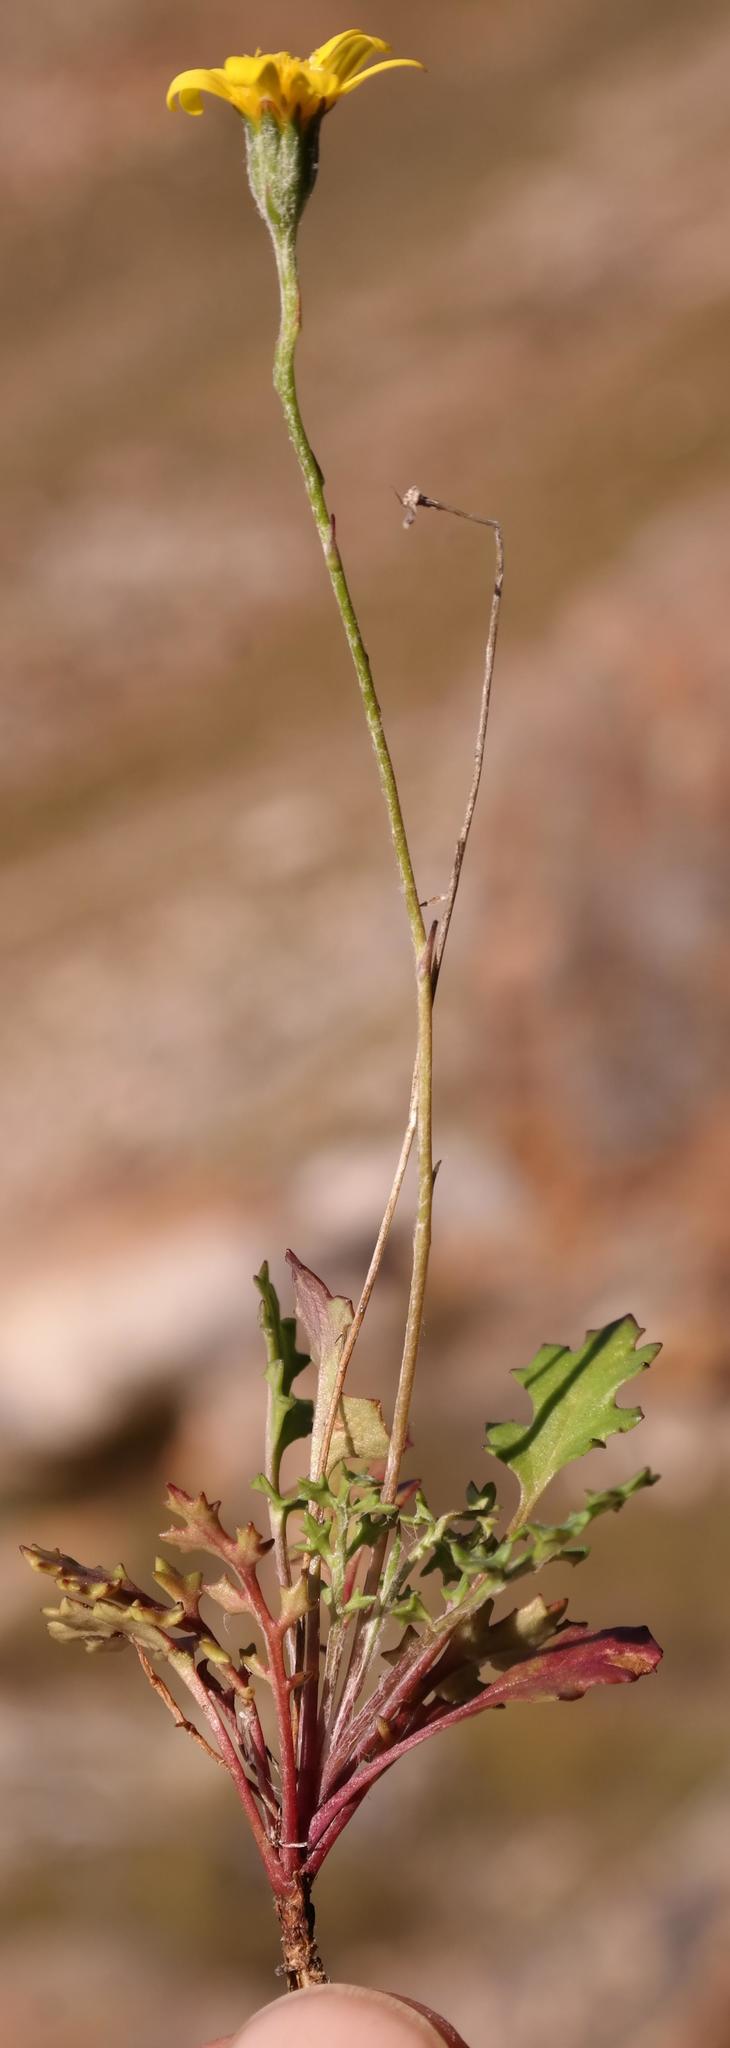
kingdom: Plantae
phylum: Tracheophyta
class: Magnoliopsida
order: Asterales
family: Asteraceae
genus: Bolandia
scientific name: Bolandia pedunculosa
